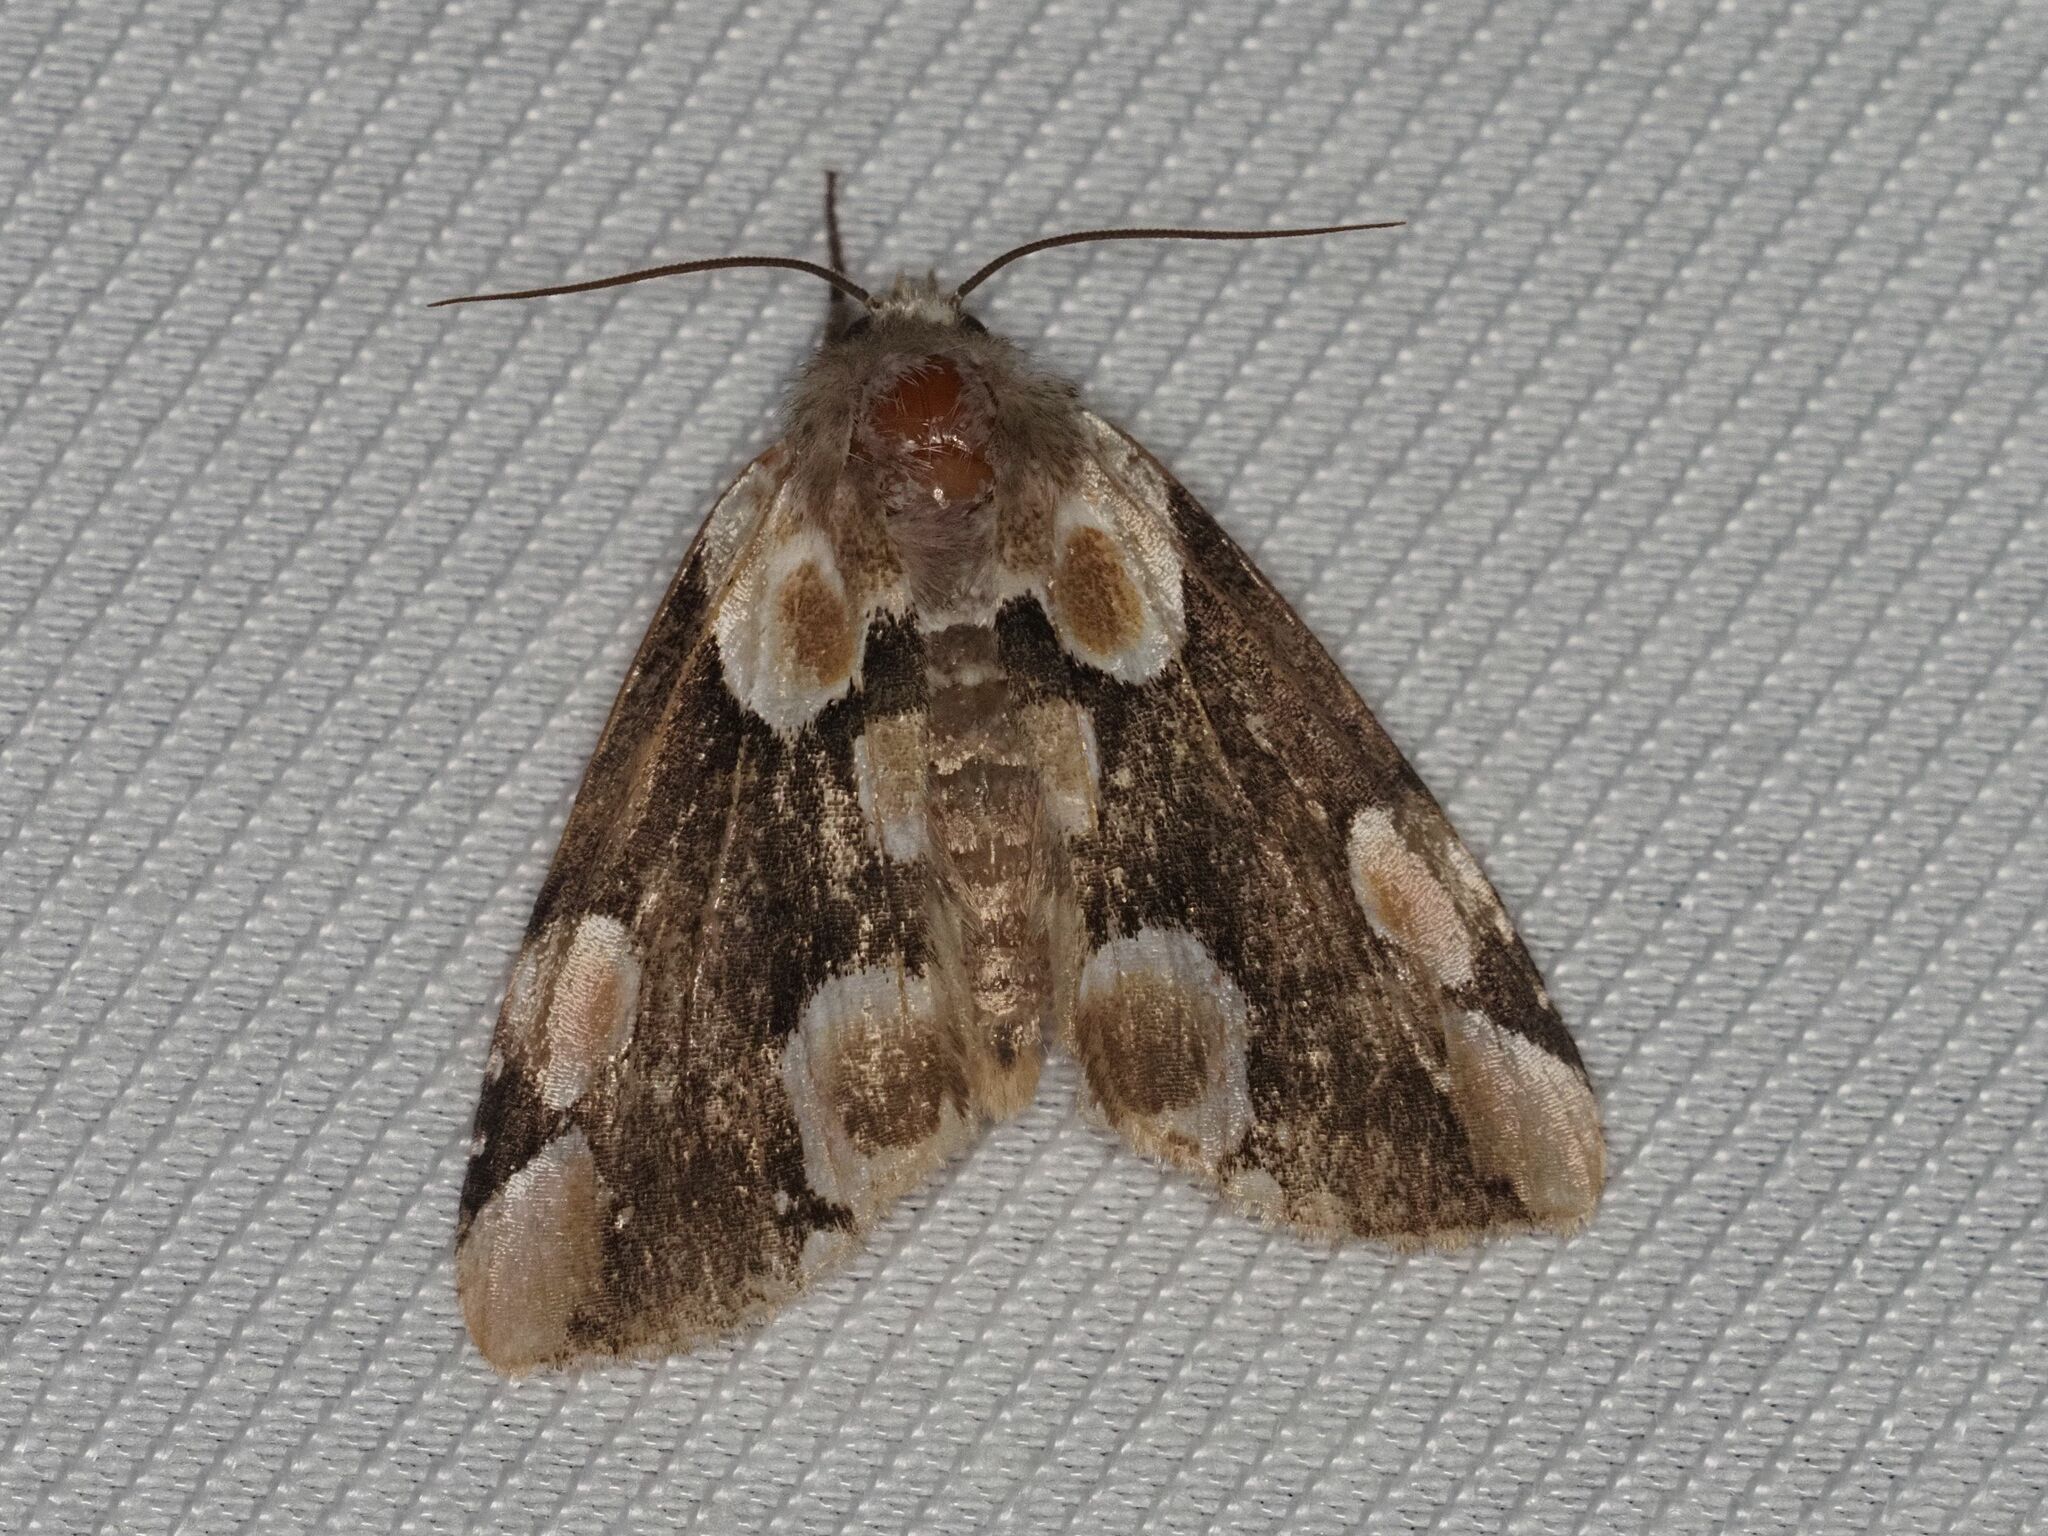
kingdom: Animalia
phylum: Arthropoda
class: Insecta
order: Lepidoptera
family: Drepanidae
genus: Thyatira
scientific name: Thyatira batis
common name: Peach blossom
